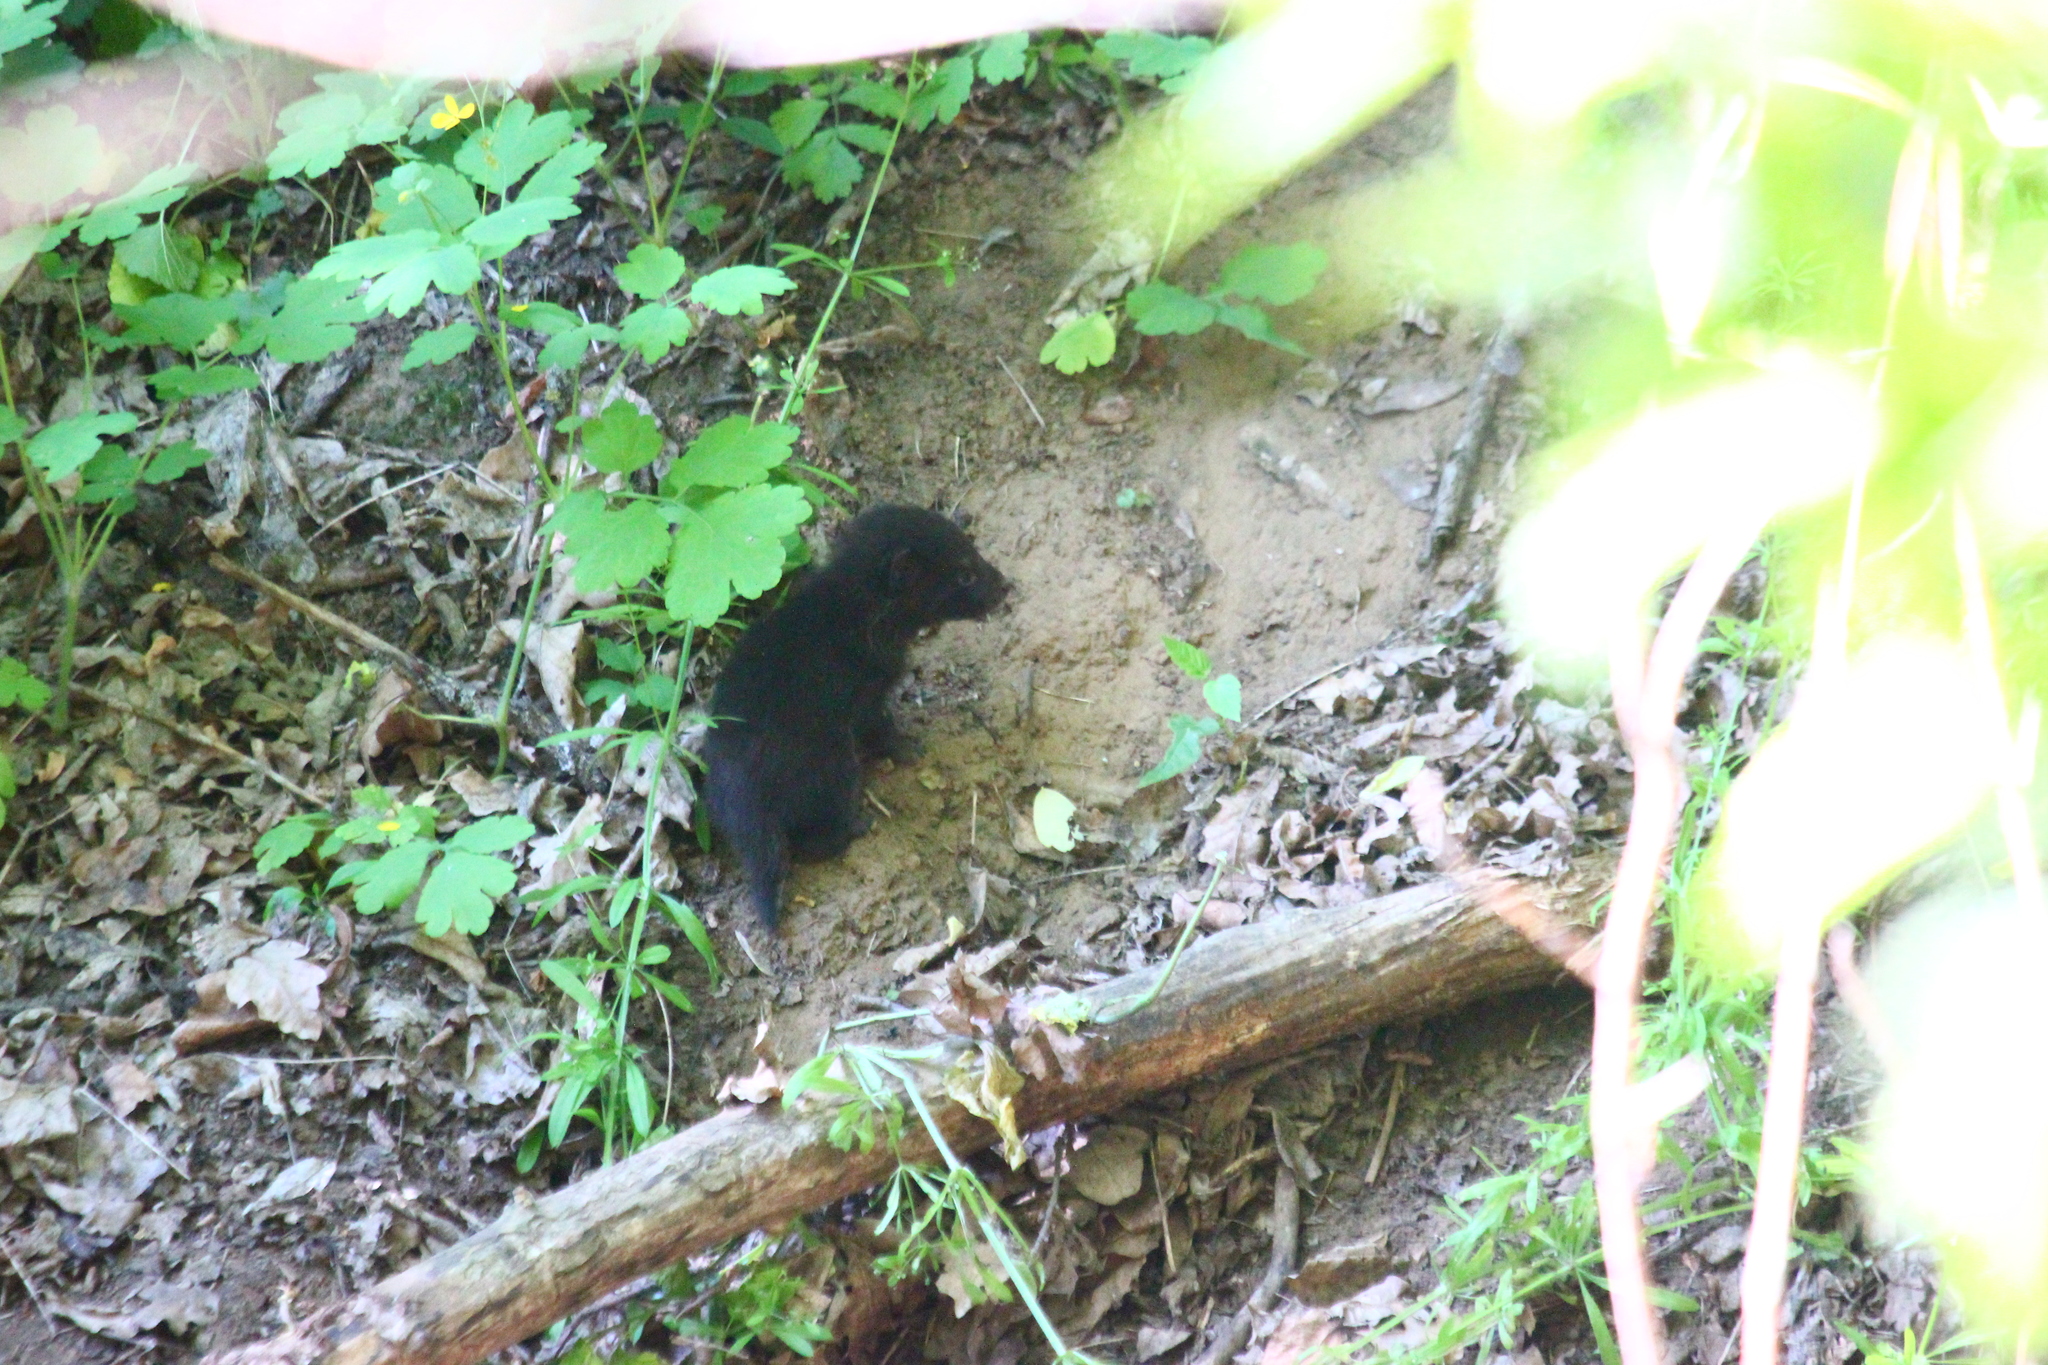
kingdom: Animalia
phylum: Chordata
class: Mammalia
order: Carnivora
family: Canidae
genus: Nyctereutes
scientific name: Nyctereutes procyonoides
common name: Raccoon dog
